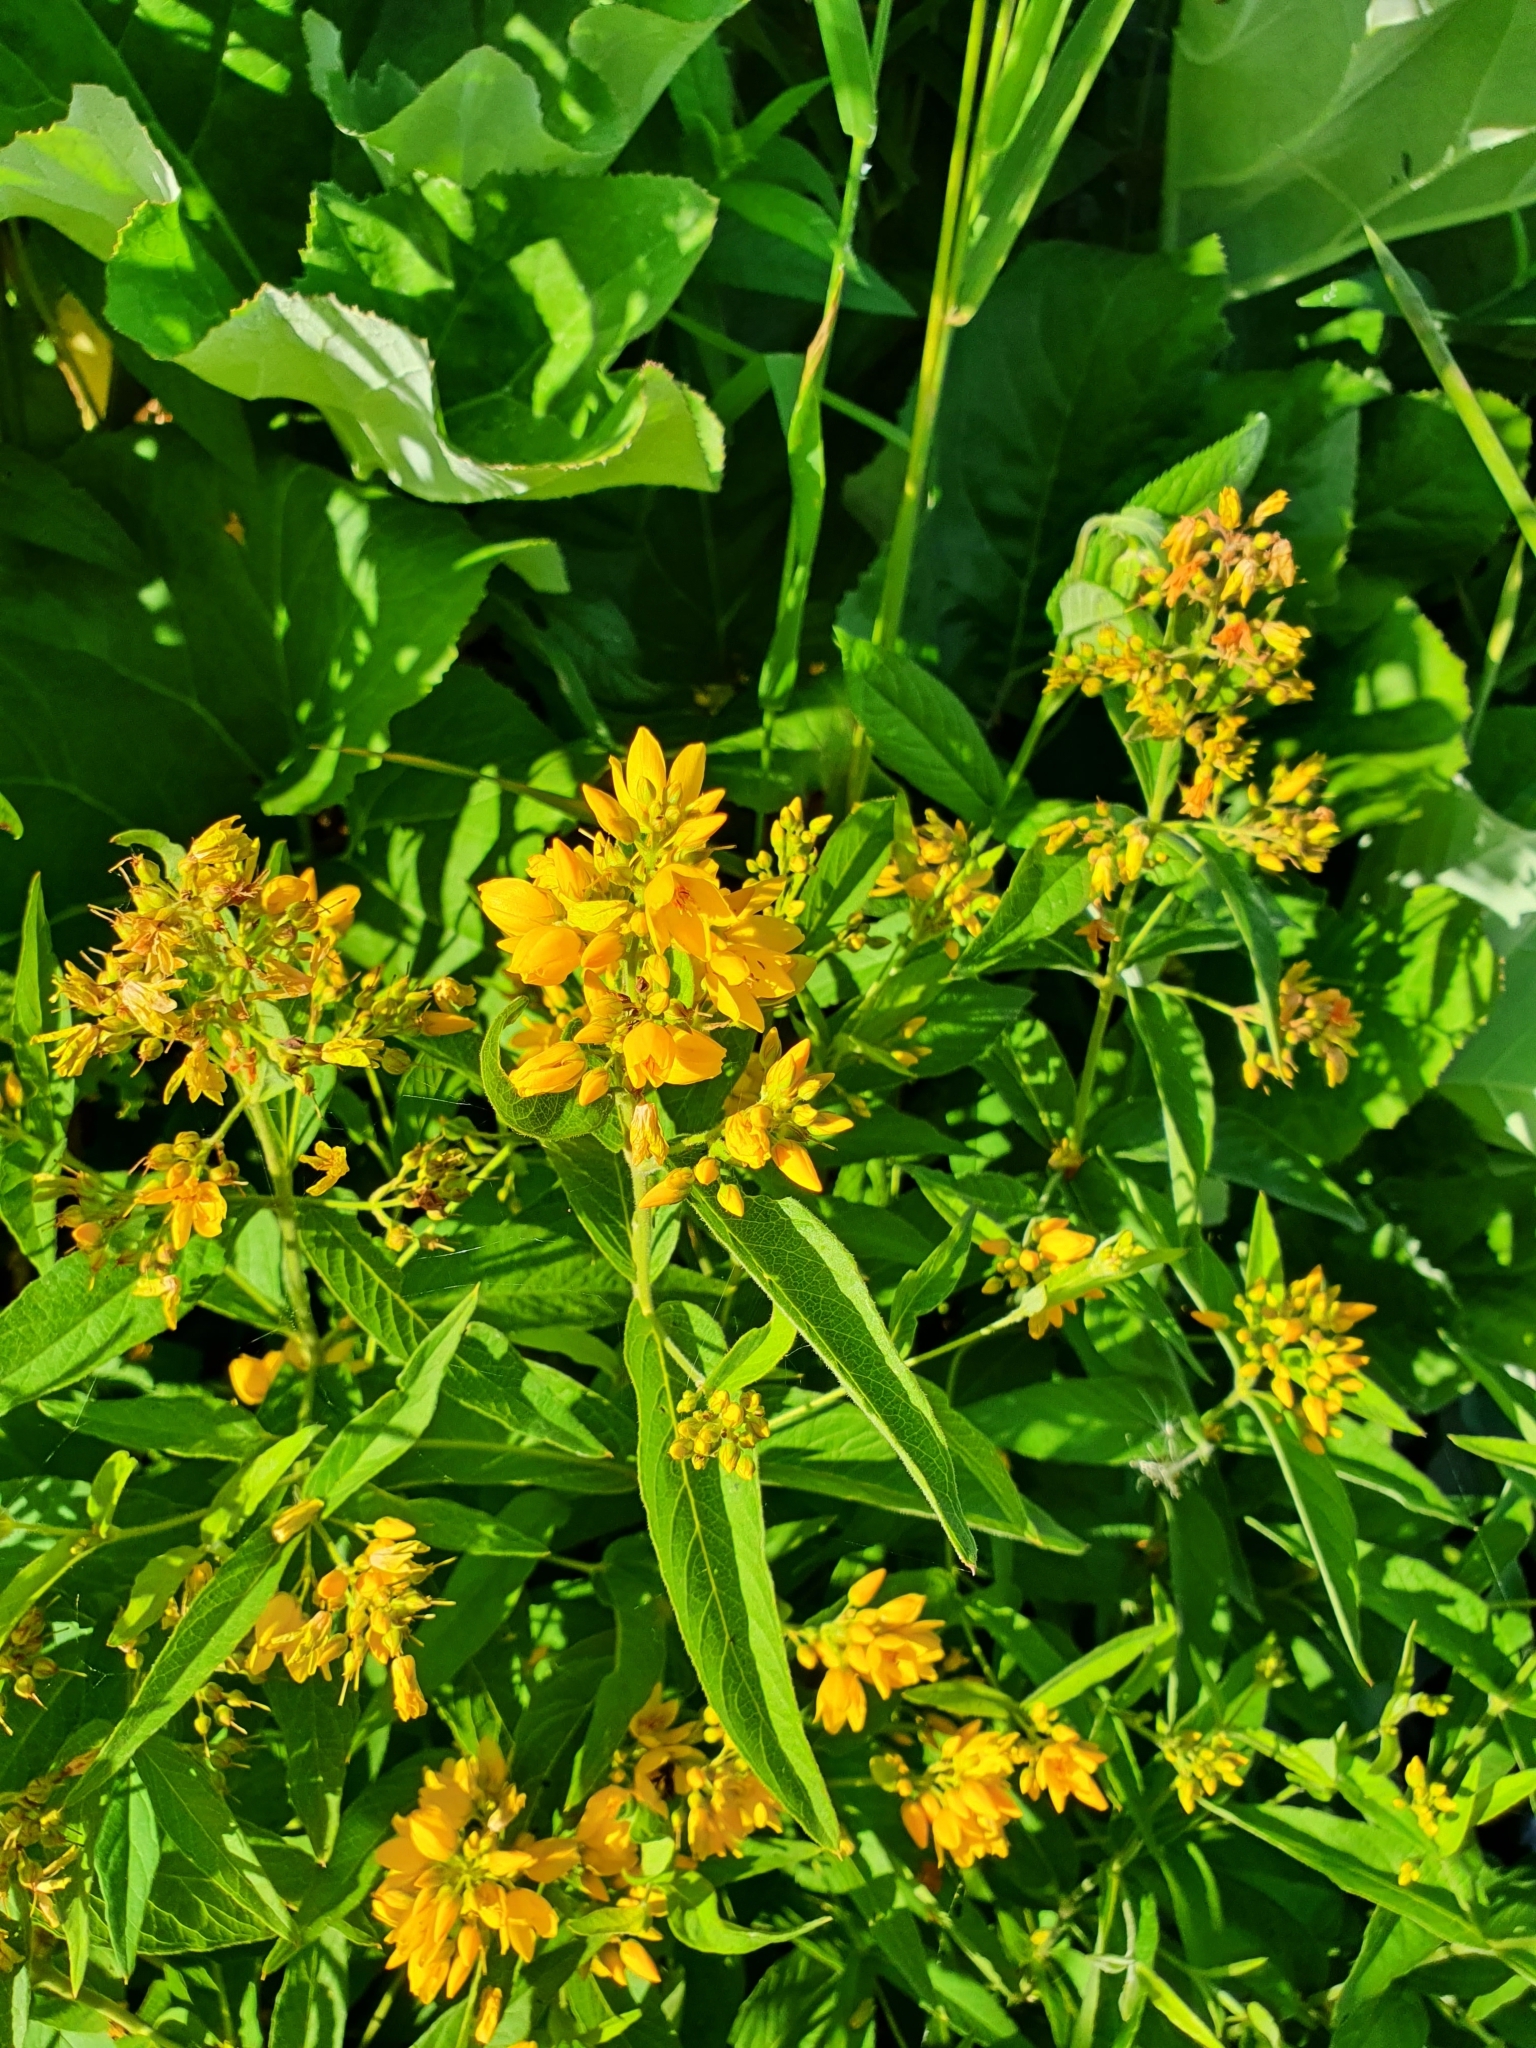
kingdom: Plantae
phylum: Tracheophyta
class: Magnoliopsida
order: Ericales
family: Primulaceae
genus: Lysimachia
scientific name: Lysimachia vulgaris
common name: Yellow loosestrife
